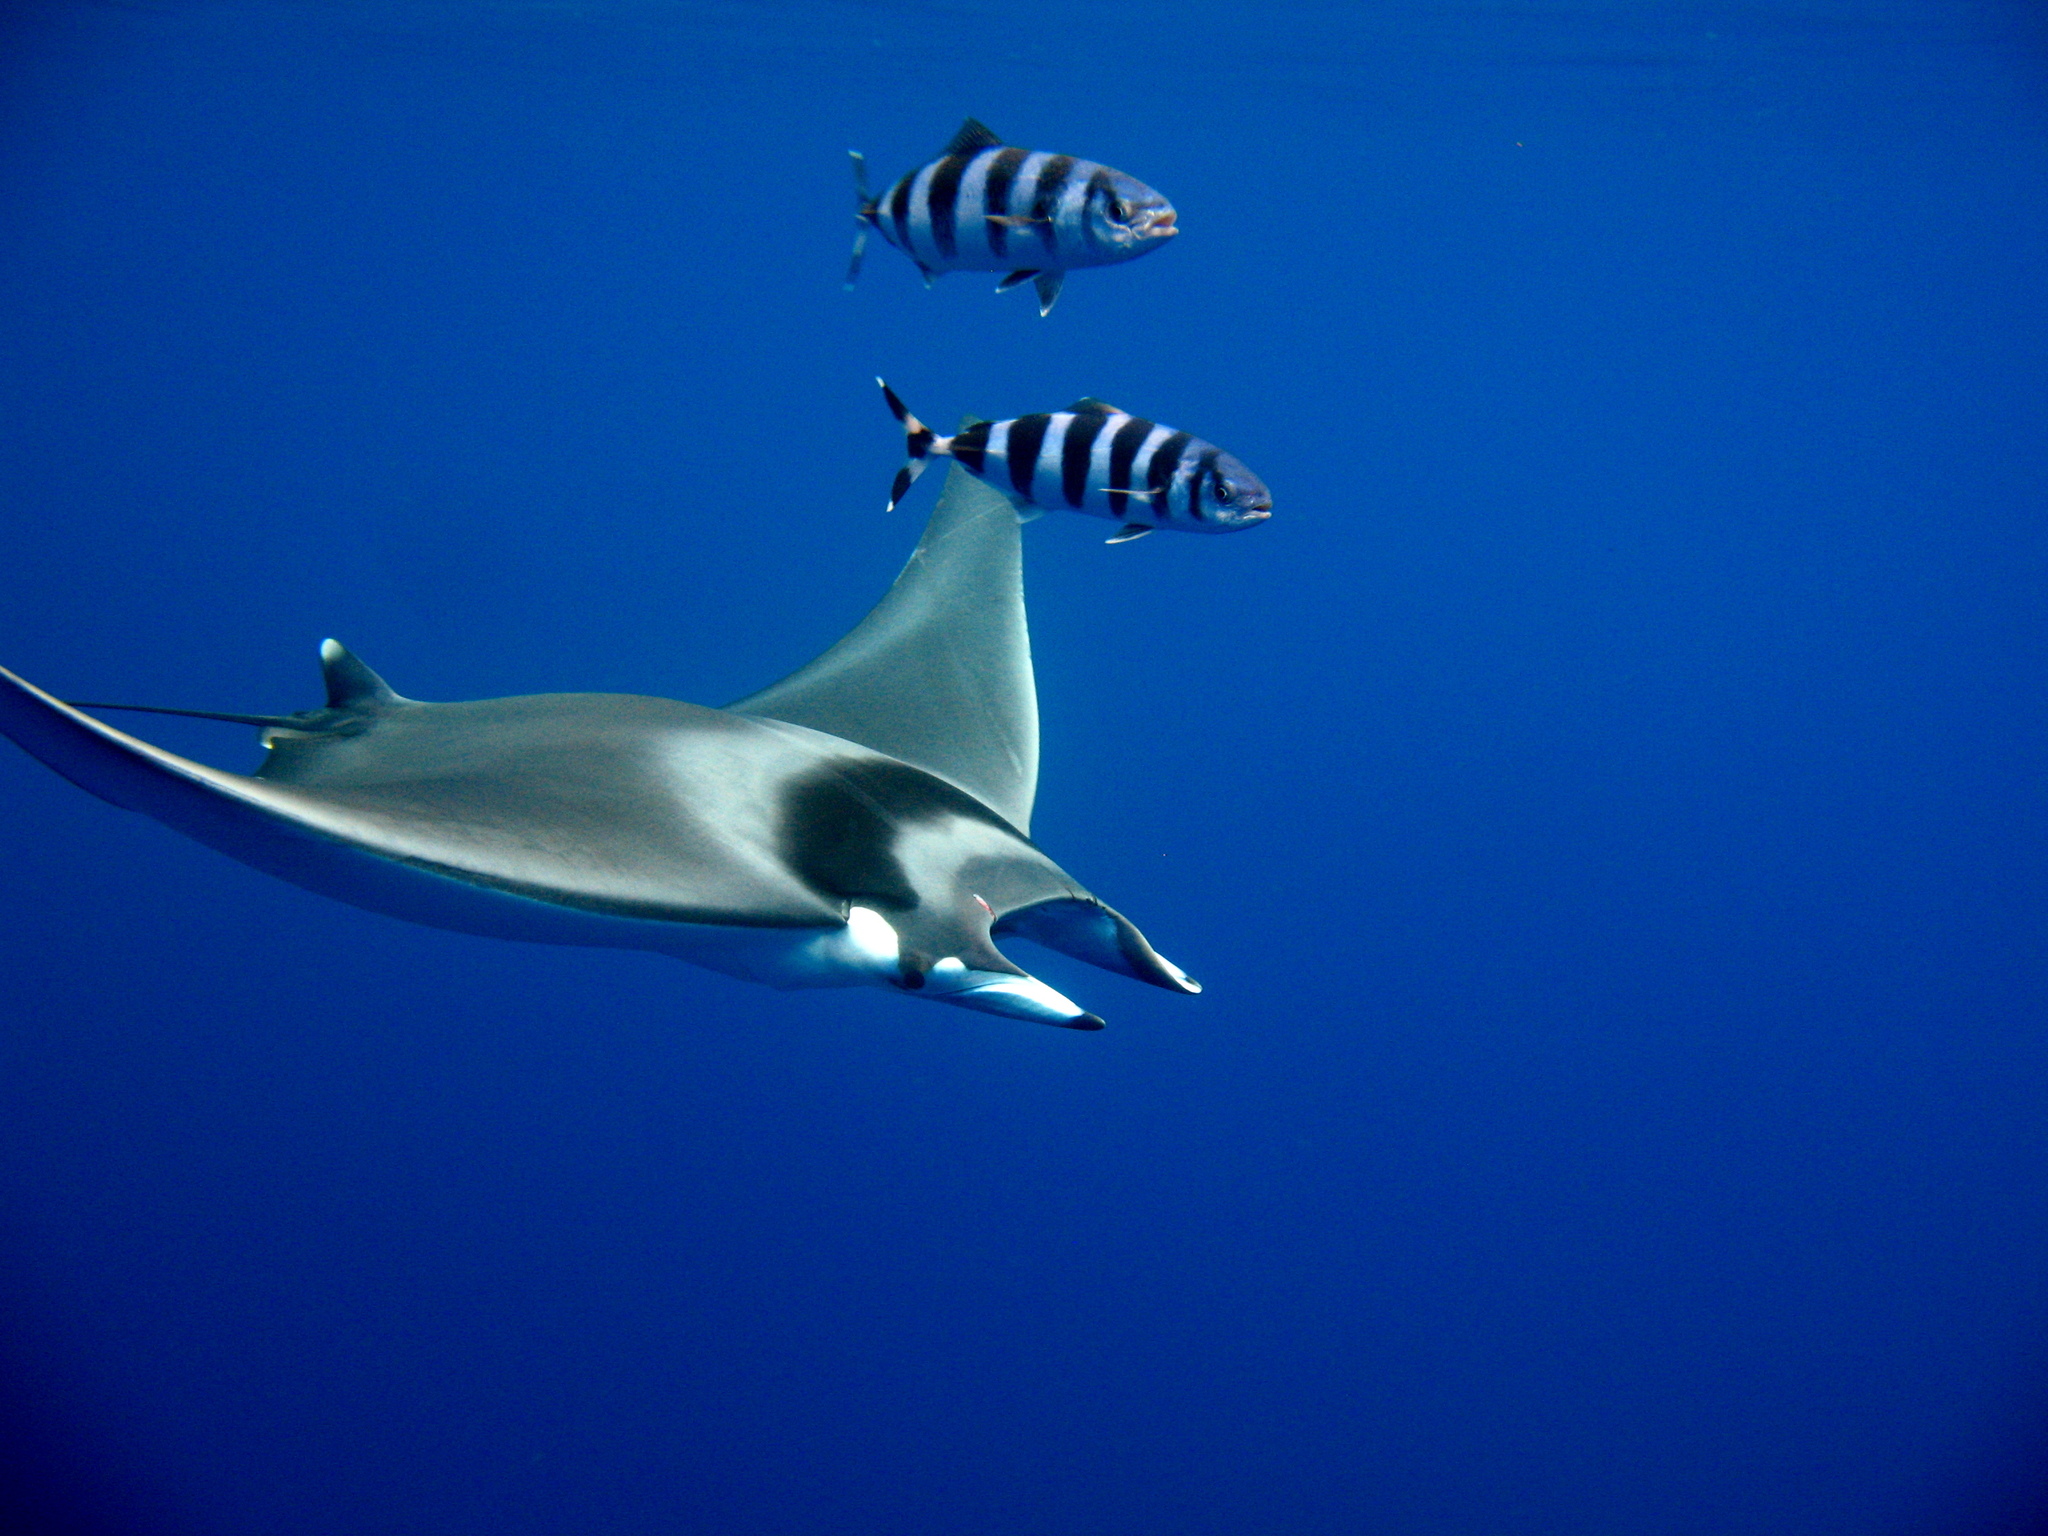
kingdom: Animalia
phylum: Chordata
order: Perciformes
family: Carangidae
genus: Naucrates
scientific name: Naucrates ductor
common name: Pilotfish
